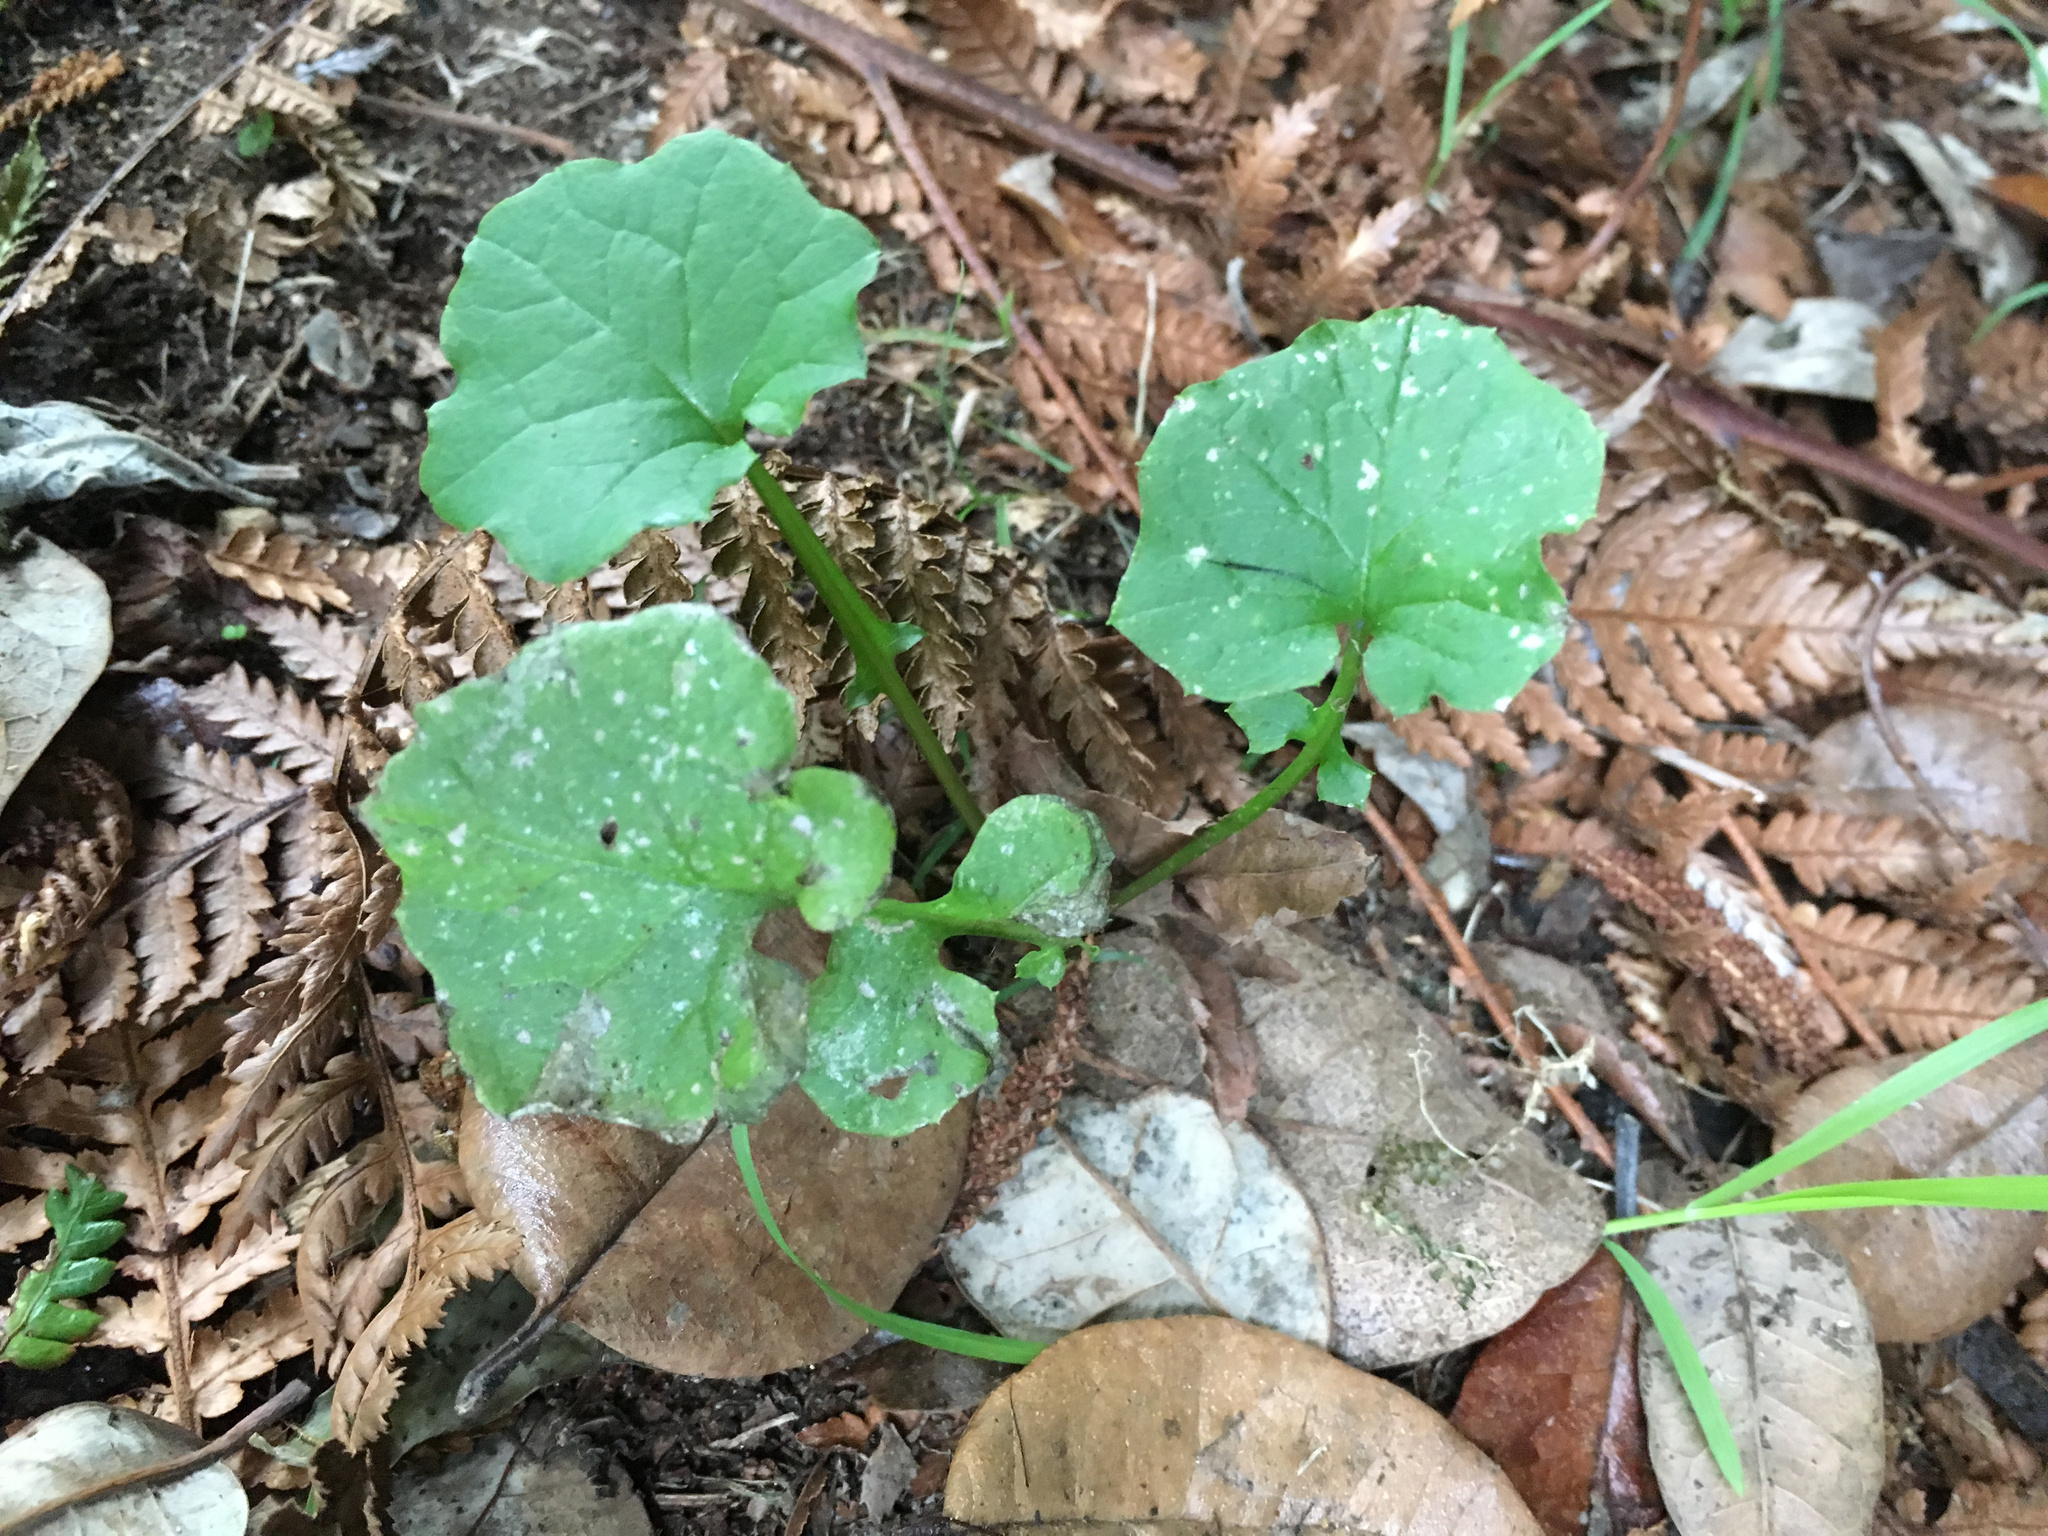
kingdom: Plantae
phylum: Tracheophyta
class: Magnoliopsida
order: Asterales
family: Asteraceae
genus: Mycelis
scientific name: Mycelis muralis
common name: Wall lettuce
